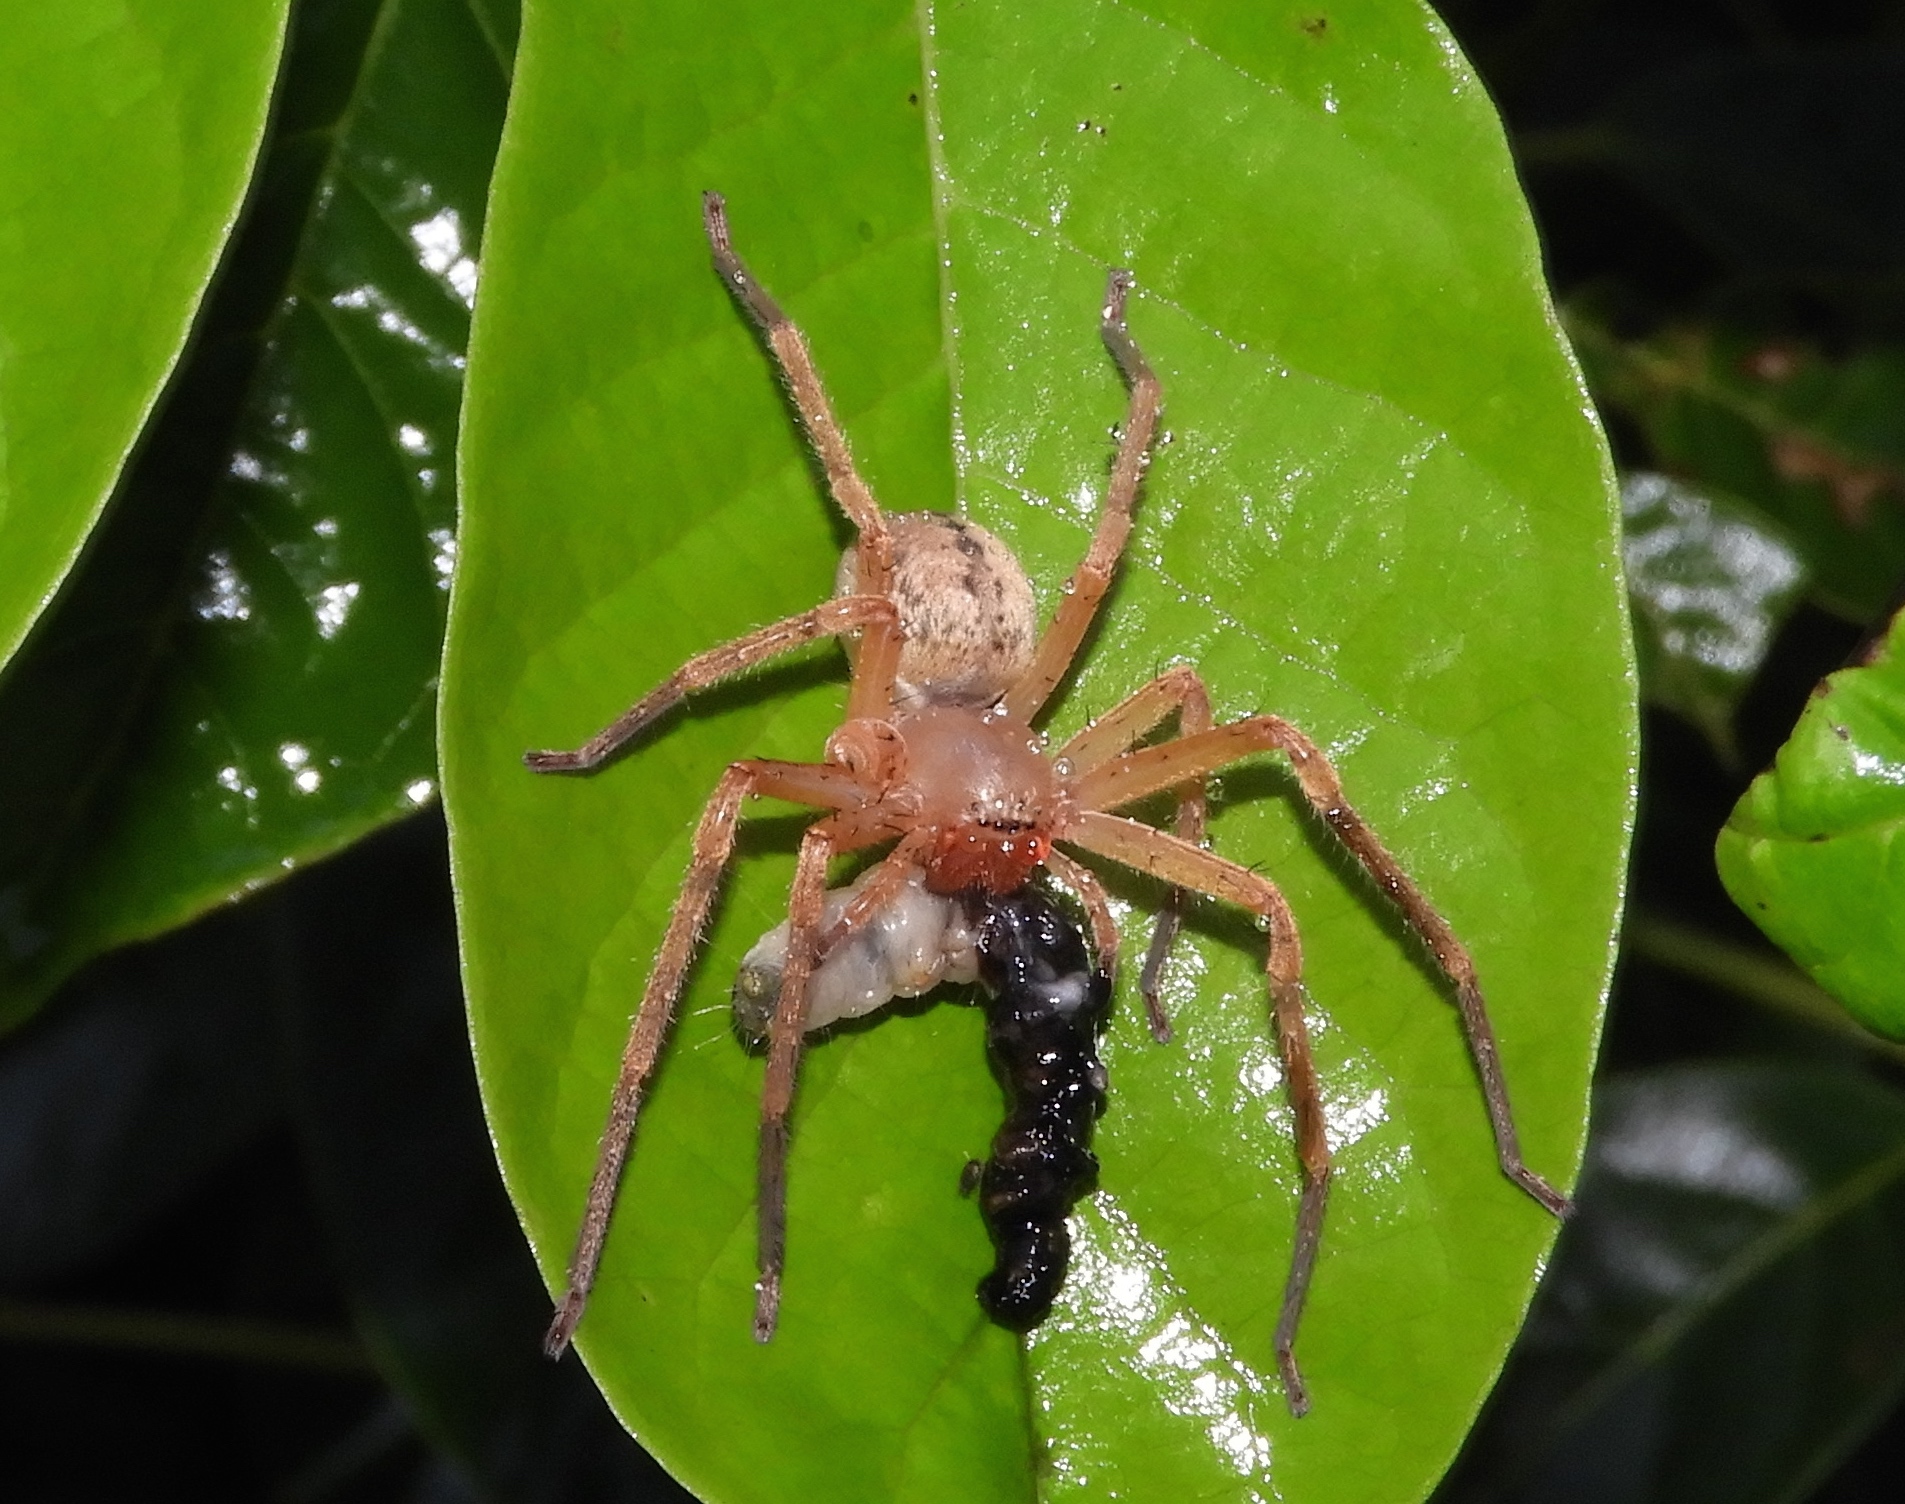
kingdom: Animalia
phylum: Arthropoda
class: Arachnida
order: Araneae
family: Sparassidae
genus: Curicaberis
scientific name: Curicaberis culiacan
